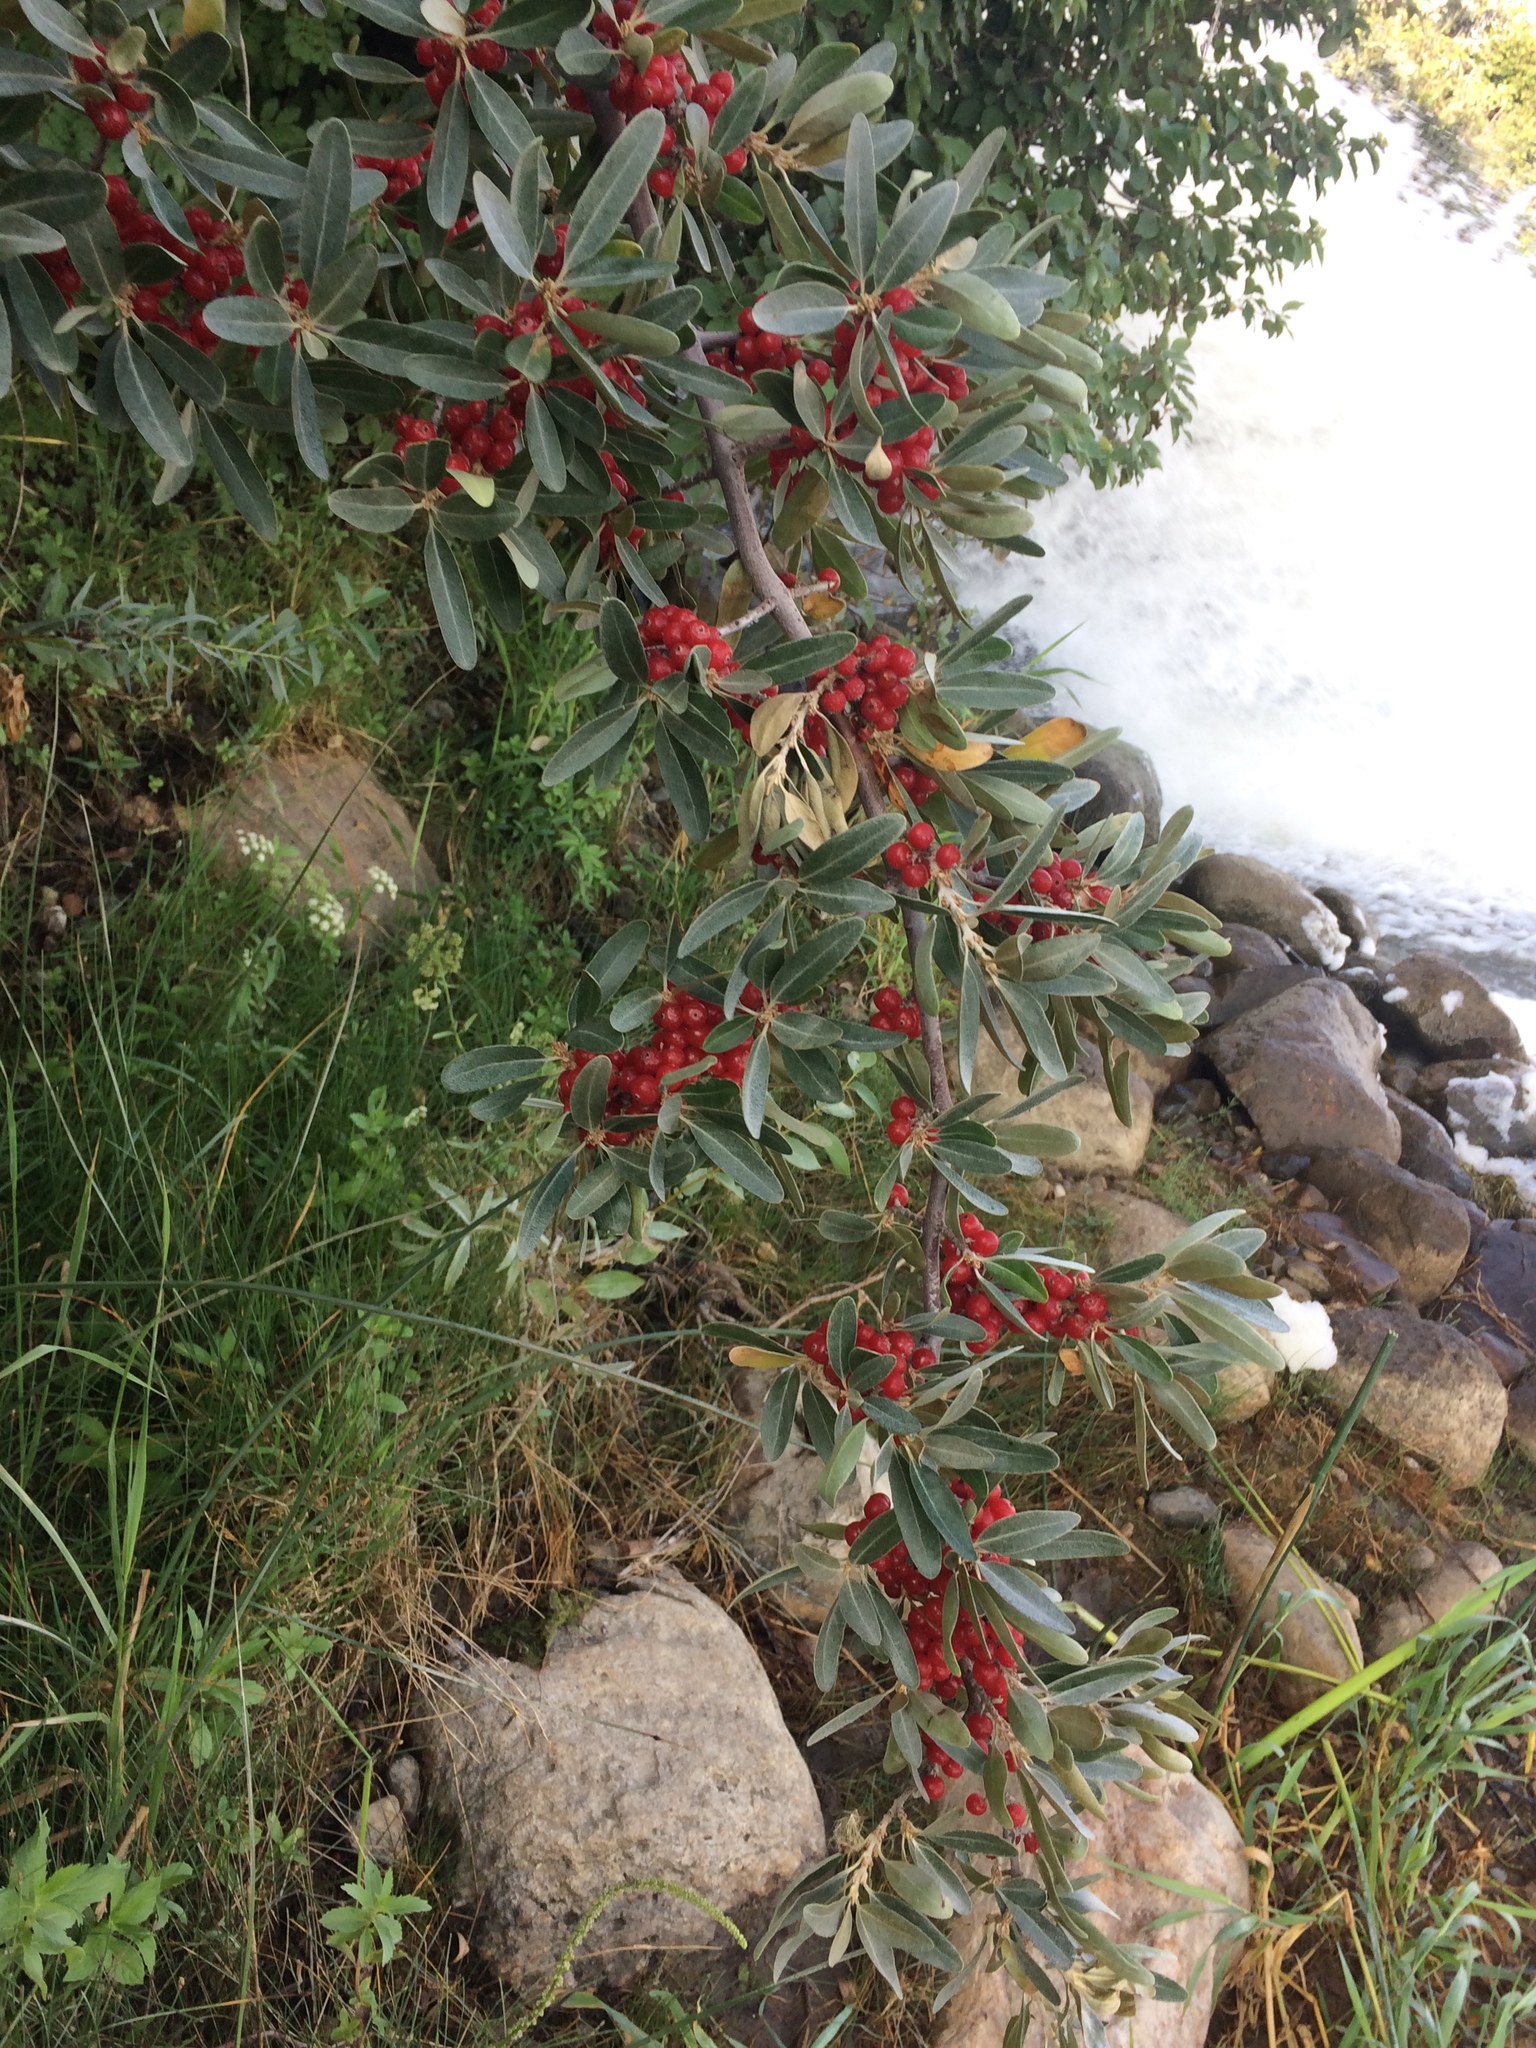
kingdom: Plantae
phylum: Tracheophyta
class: Magnoliopsida
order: Rosales
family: Elaeagnaceae
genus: Shepherdia
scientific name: Shepherdia argentea
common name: Silver buffaloberry
